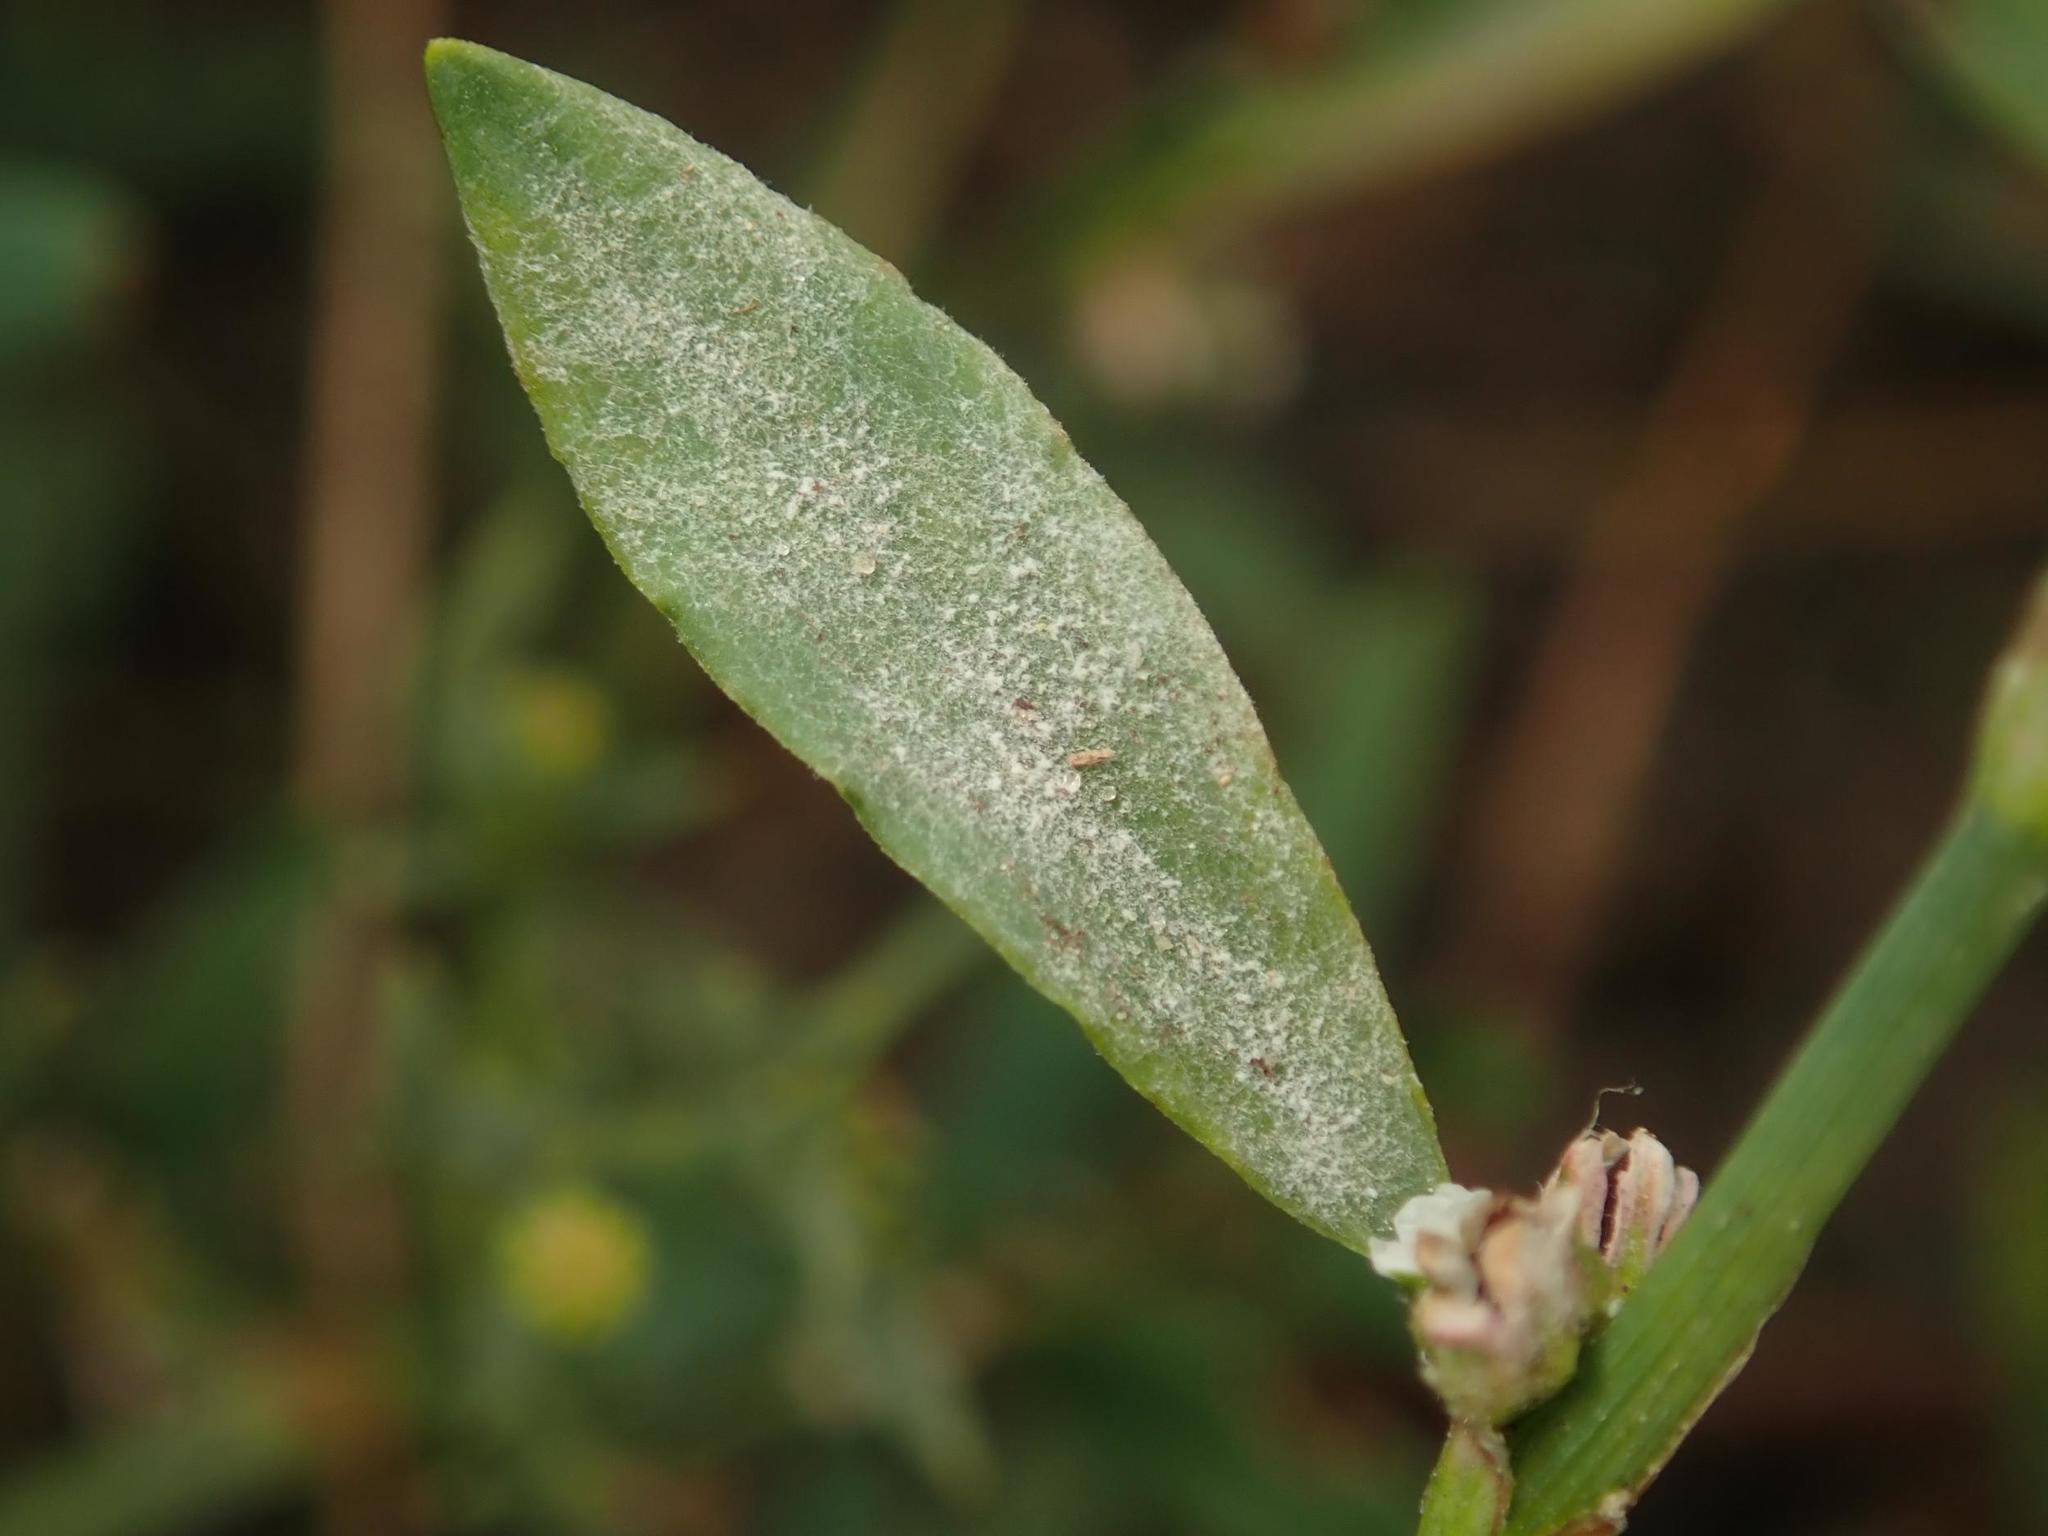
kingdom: Fungi
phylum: Ascomycota
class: Leotiomycetes
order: Helotiales
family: Erysiphaceae
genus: Erysiphe
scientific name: Erysiphe polygoni
